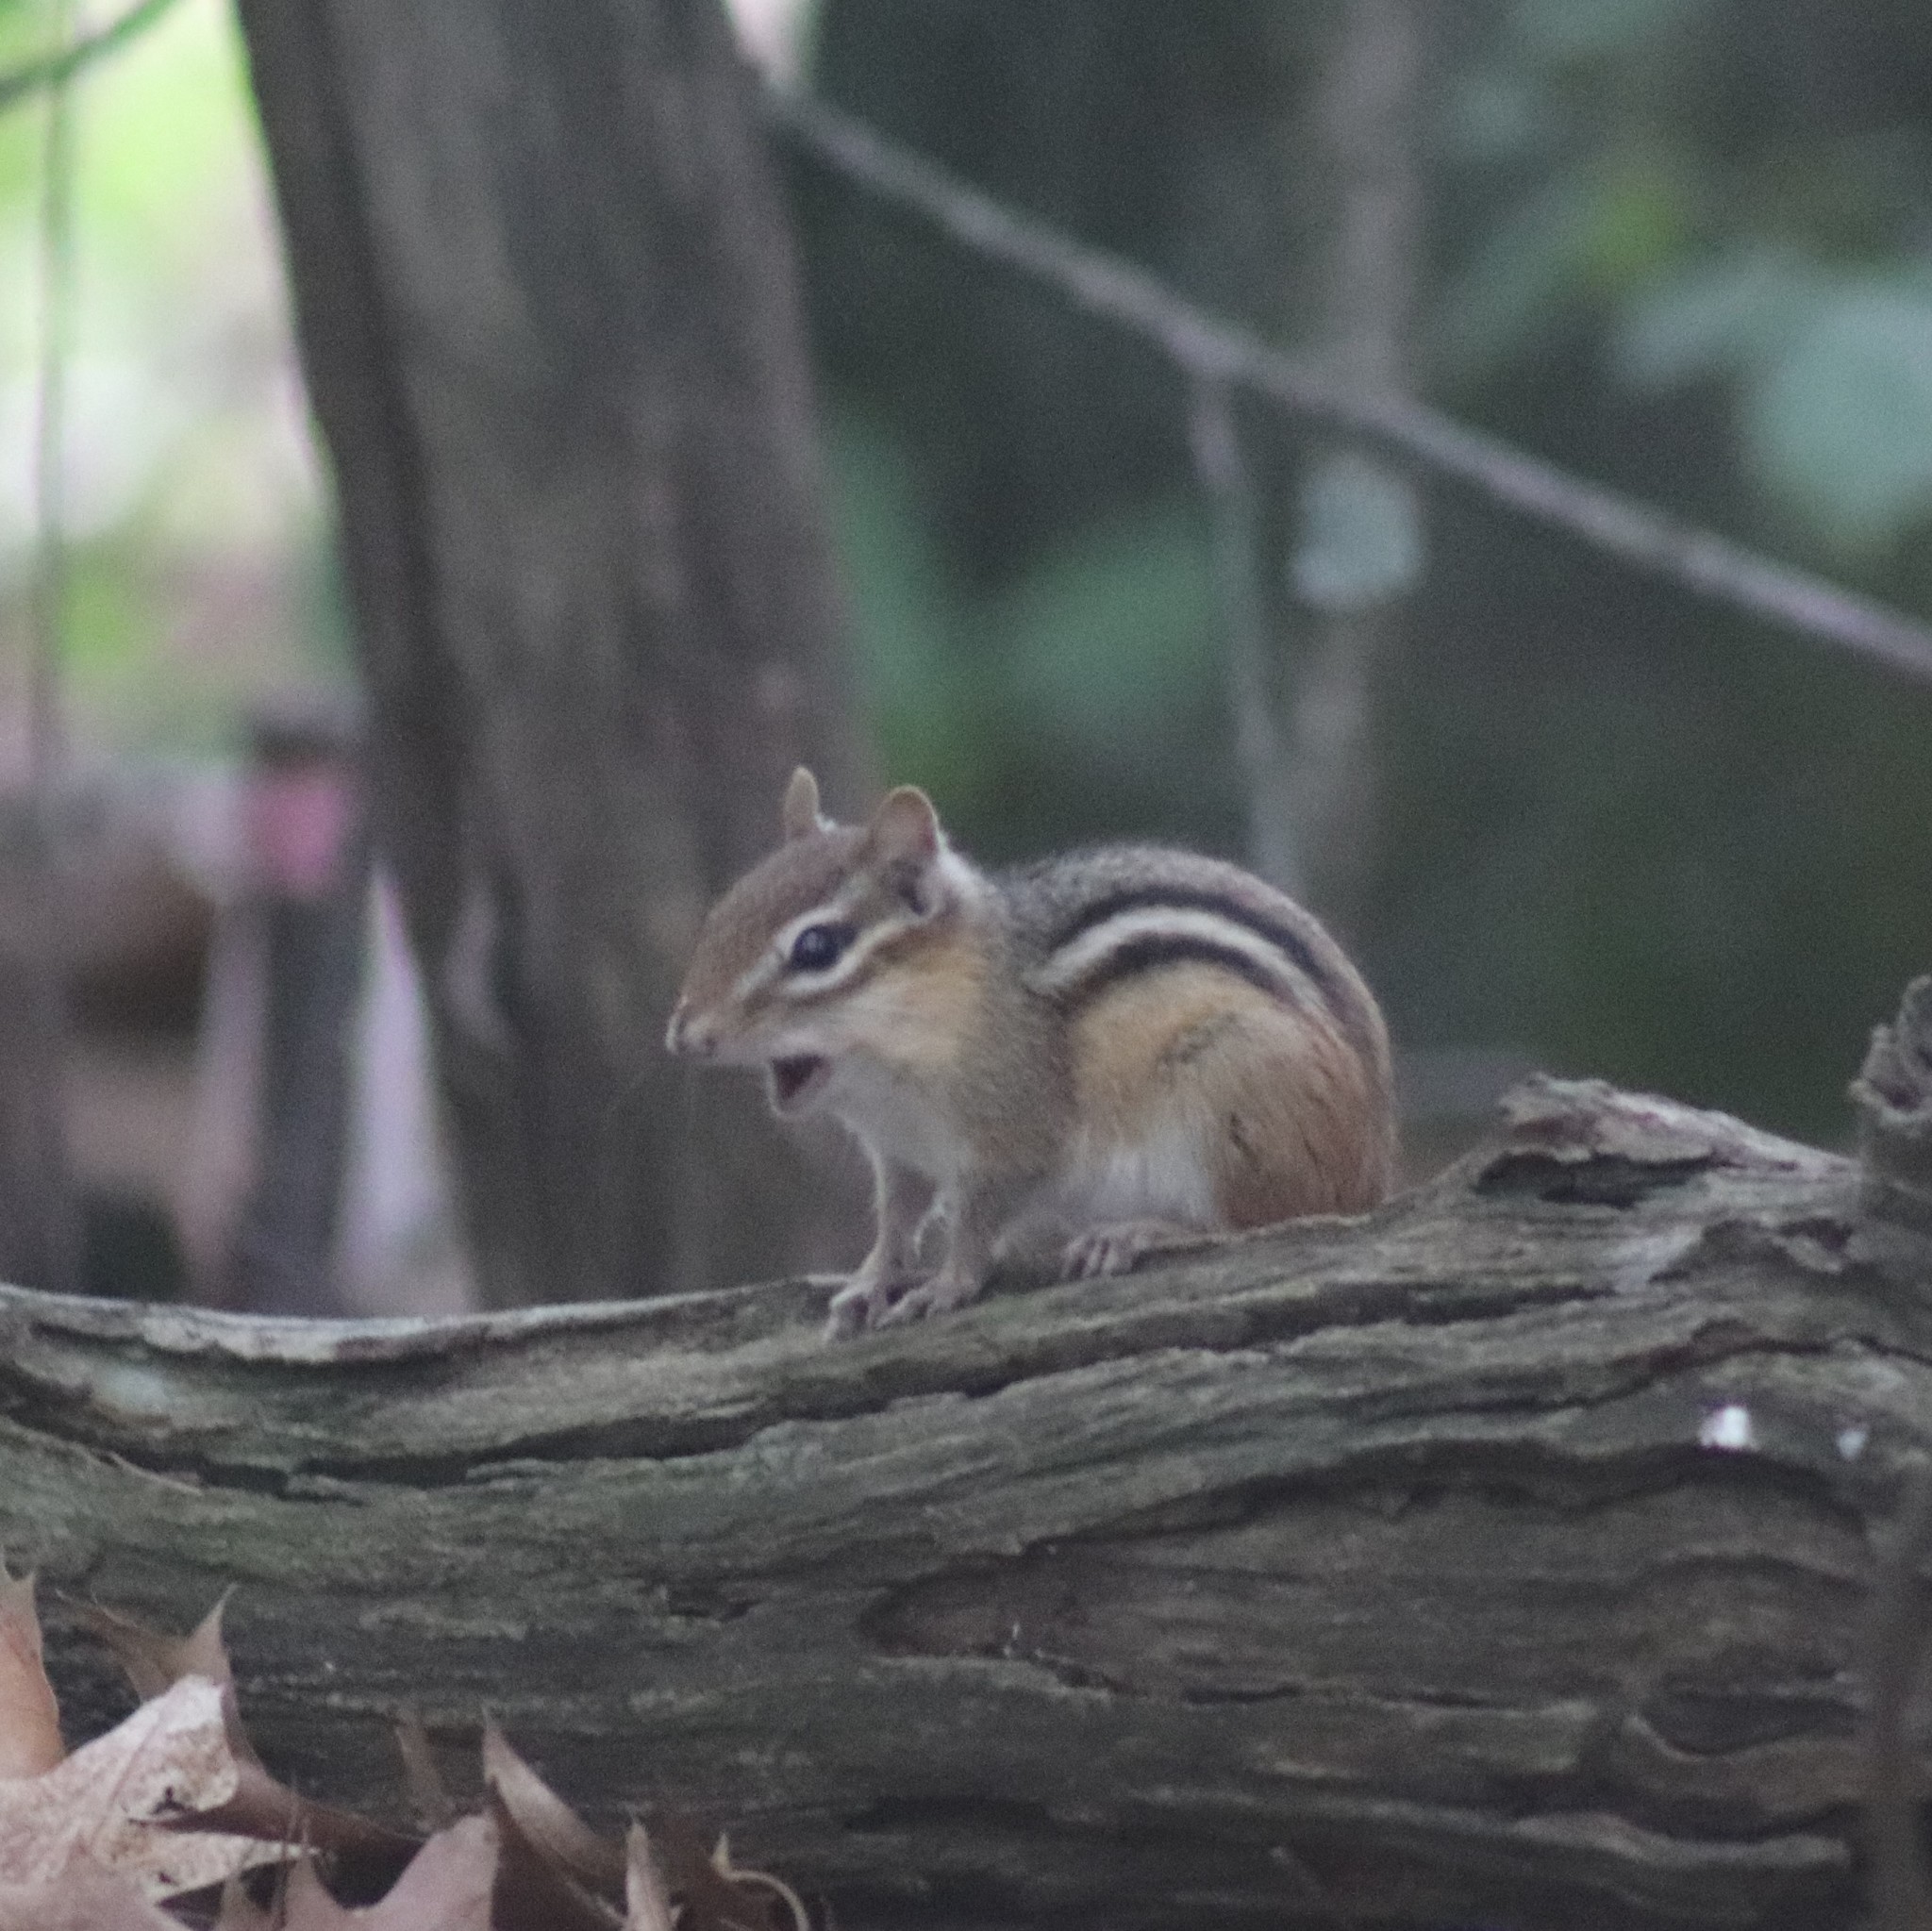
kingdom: Animalia
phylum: Chordata
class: Mammalia
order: Rodentia
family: Sciuridae
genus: Tamias
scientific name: Tamias striatus
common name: Eastern chipmunk
